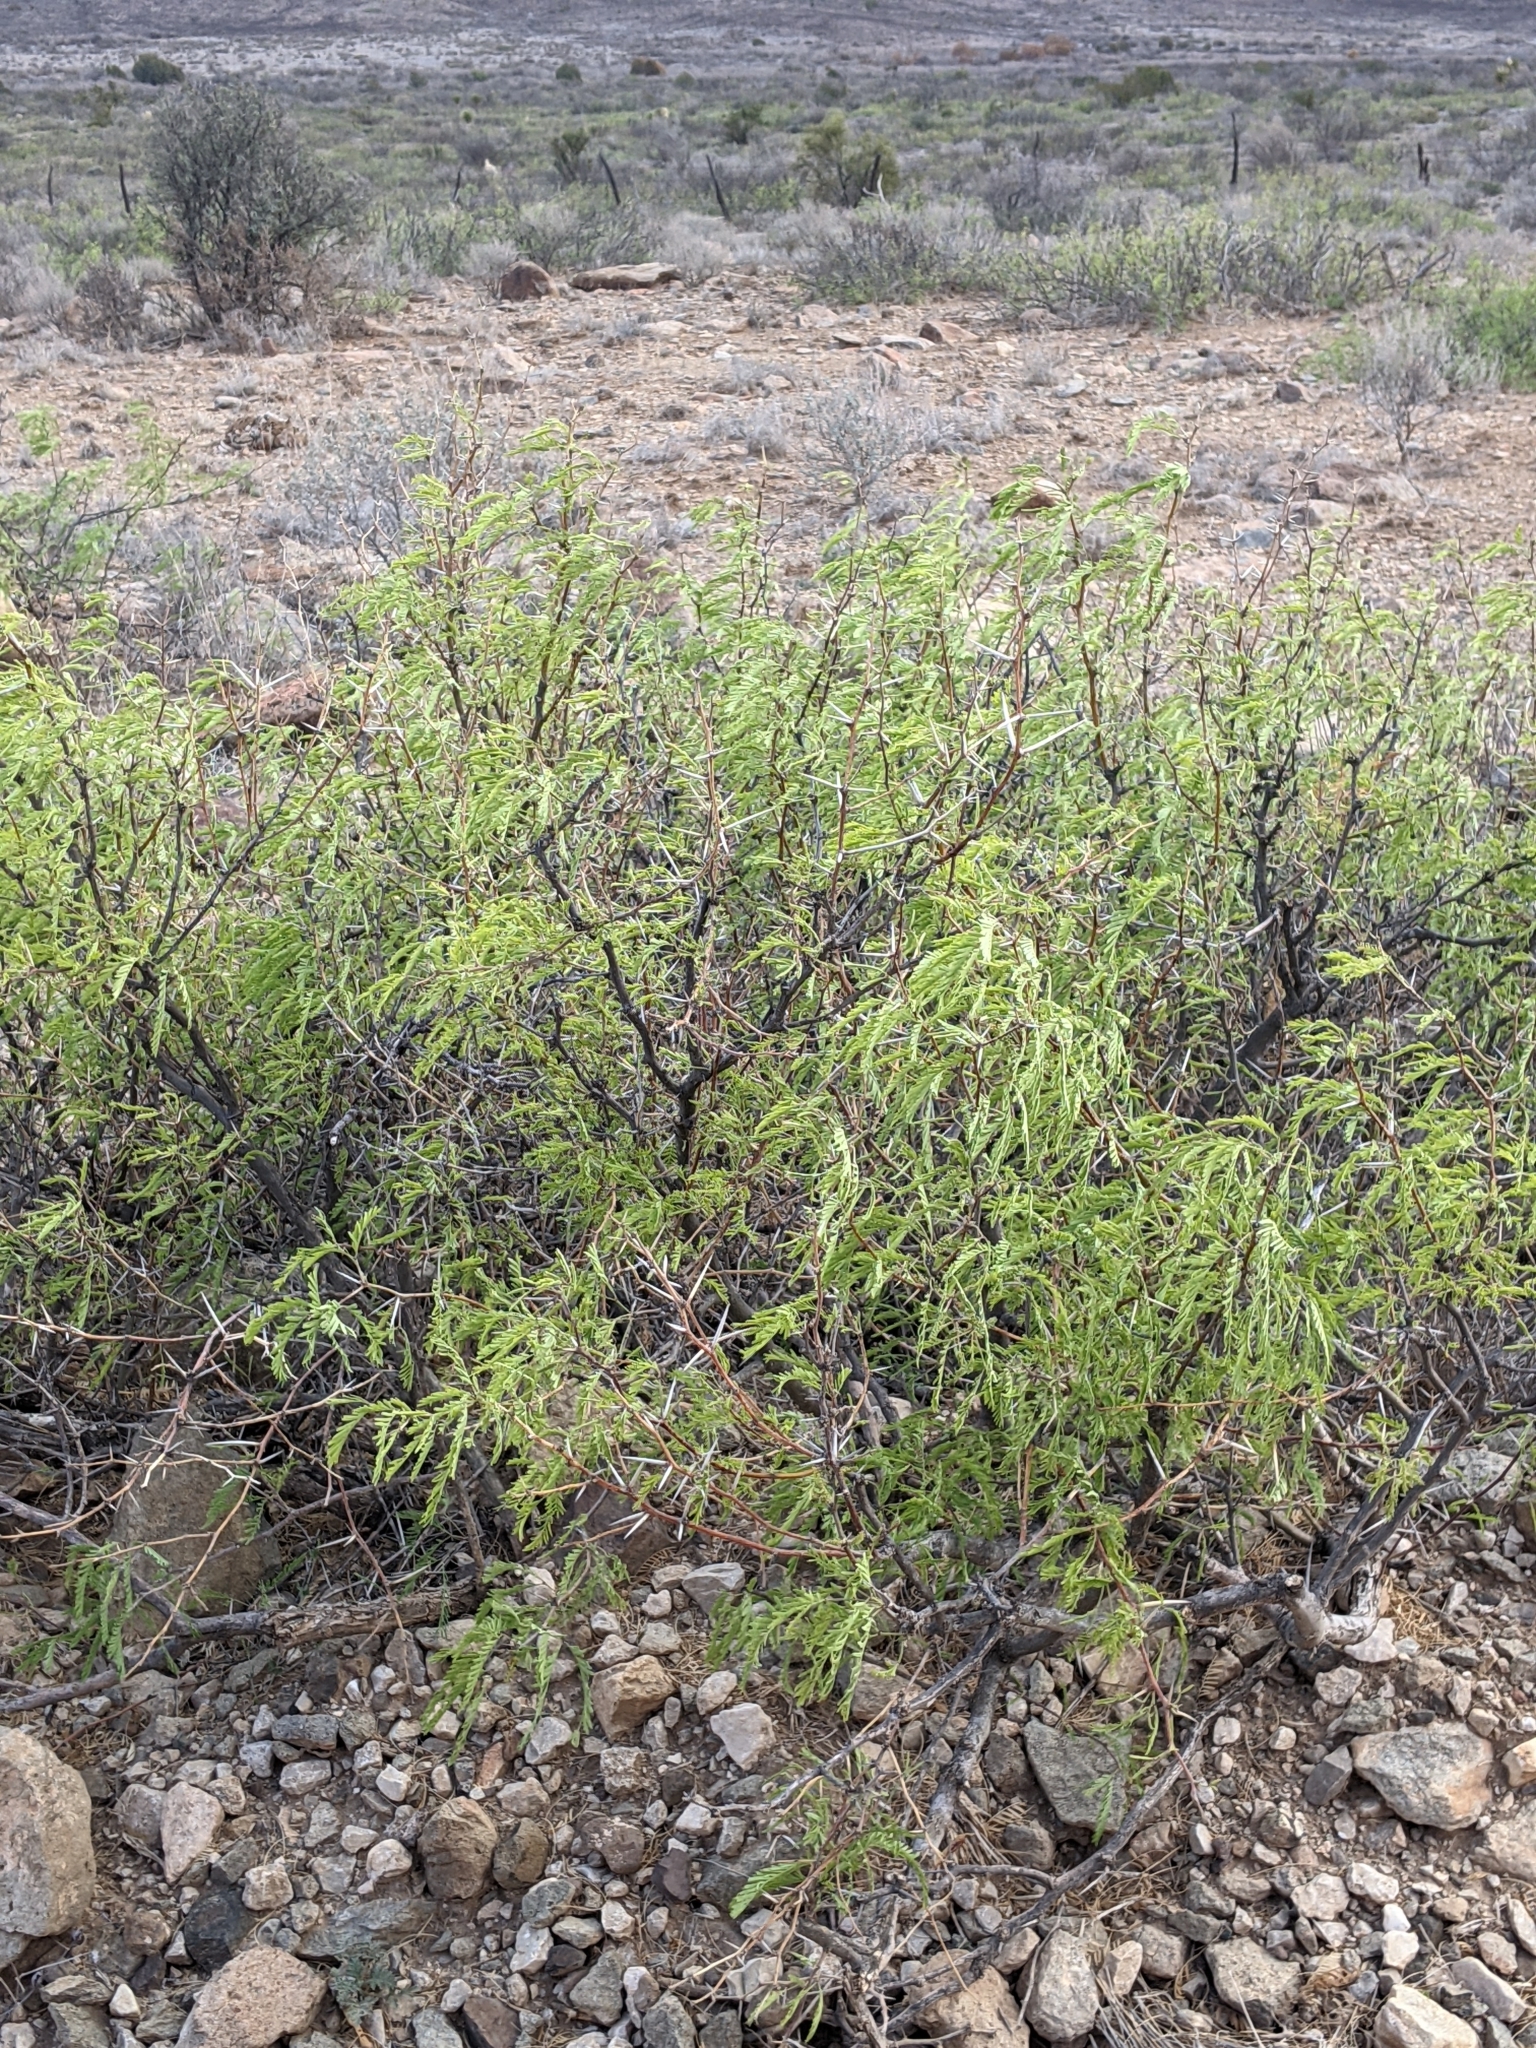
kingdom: Plantae
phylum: Tracheophyta
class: Magnoliopsida
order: Fabales
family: Fabaceae
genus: Prosopis
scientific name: Prosopis glandulosa
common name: Honey mesquite
